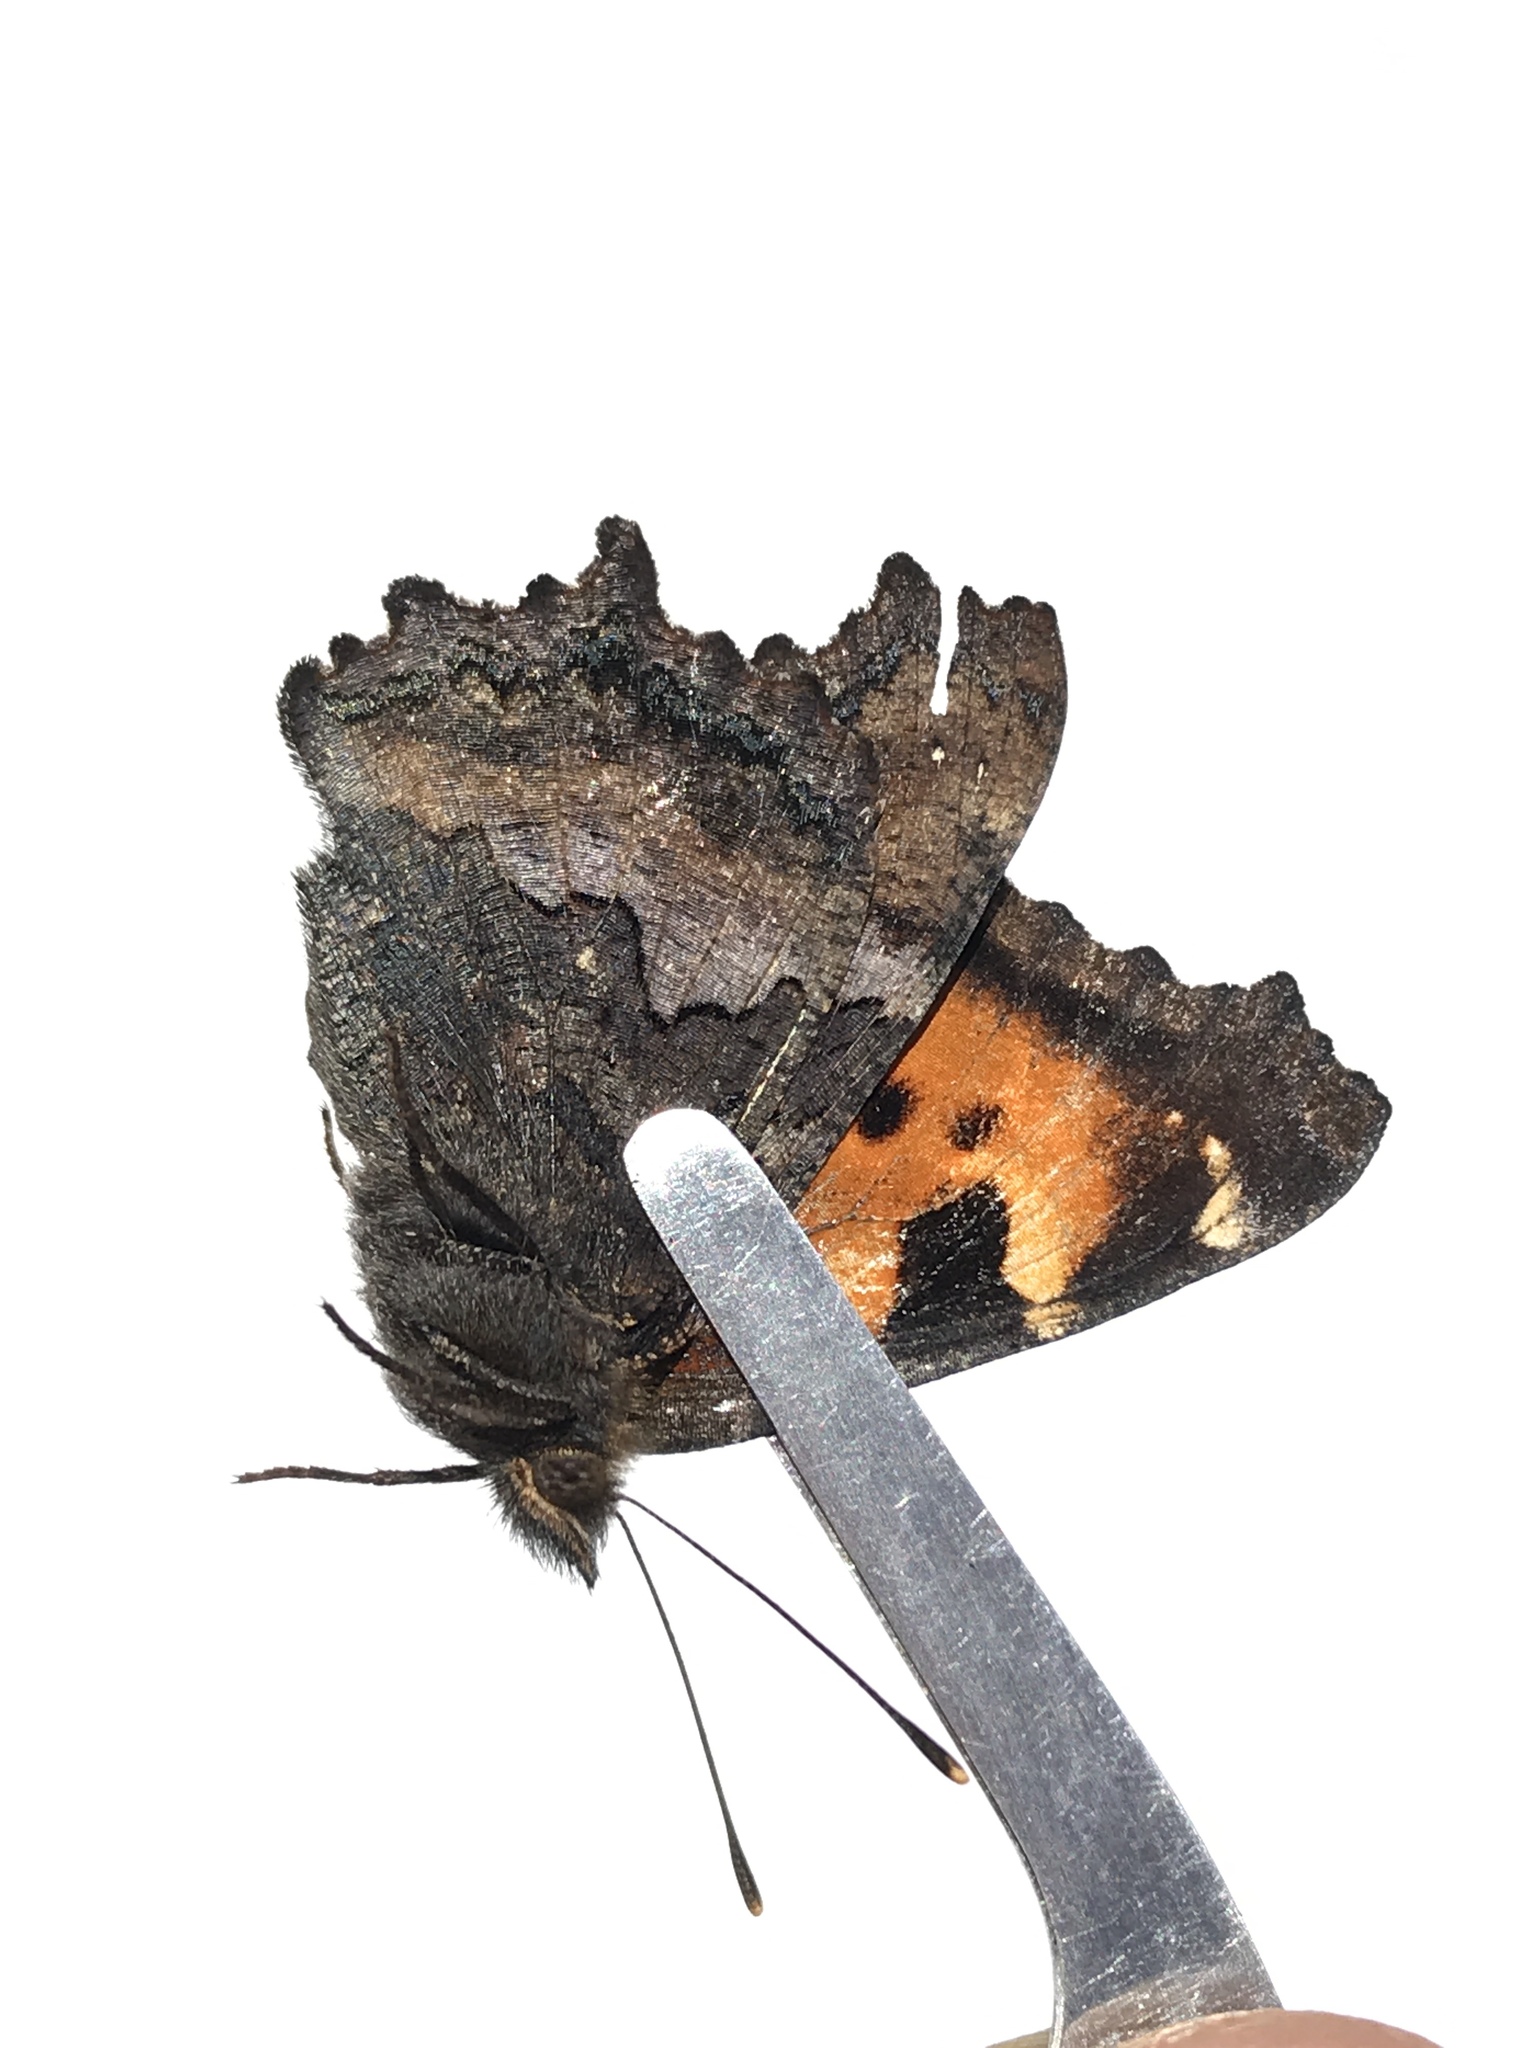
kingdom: Animalia
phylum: Arthropoda
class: Insecta
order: Lepidoptera
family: Nymphalidae
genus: Nymphalis
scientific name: Nymphalis californica
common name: California tortoiseshell
